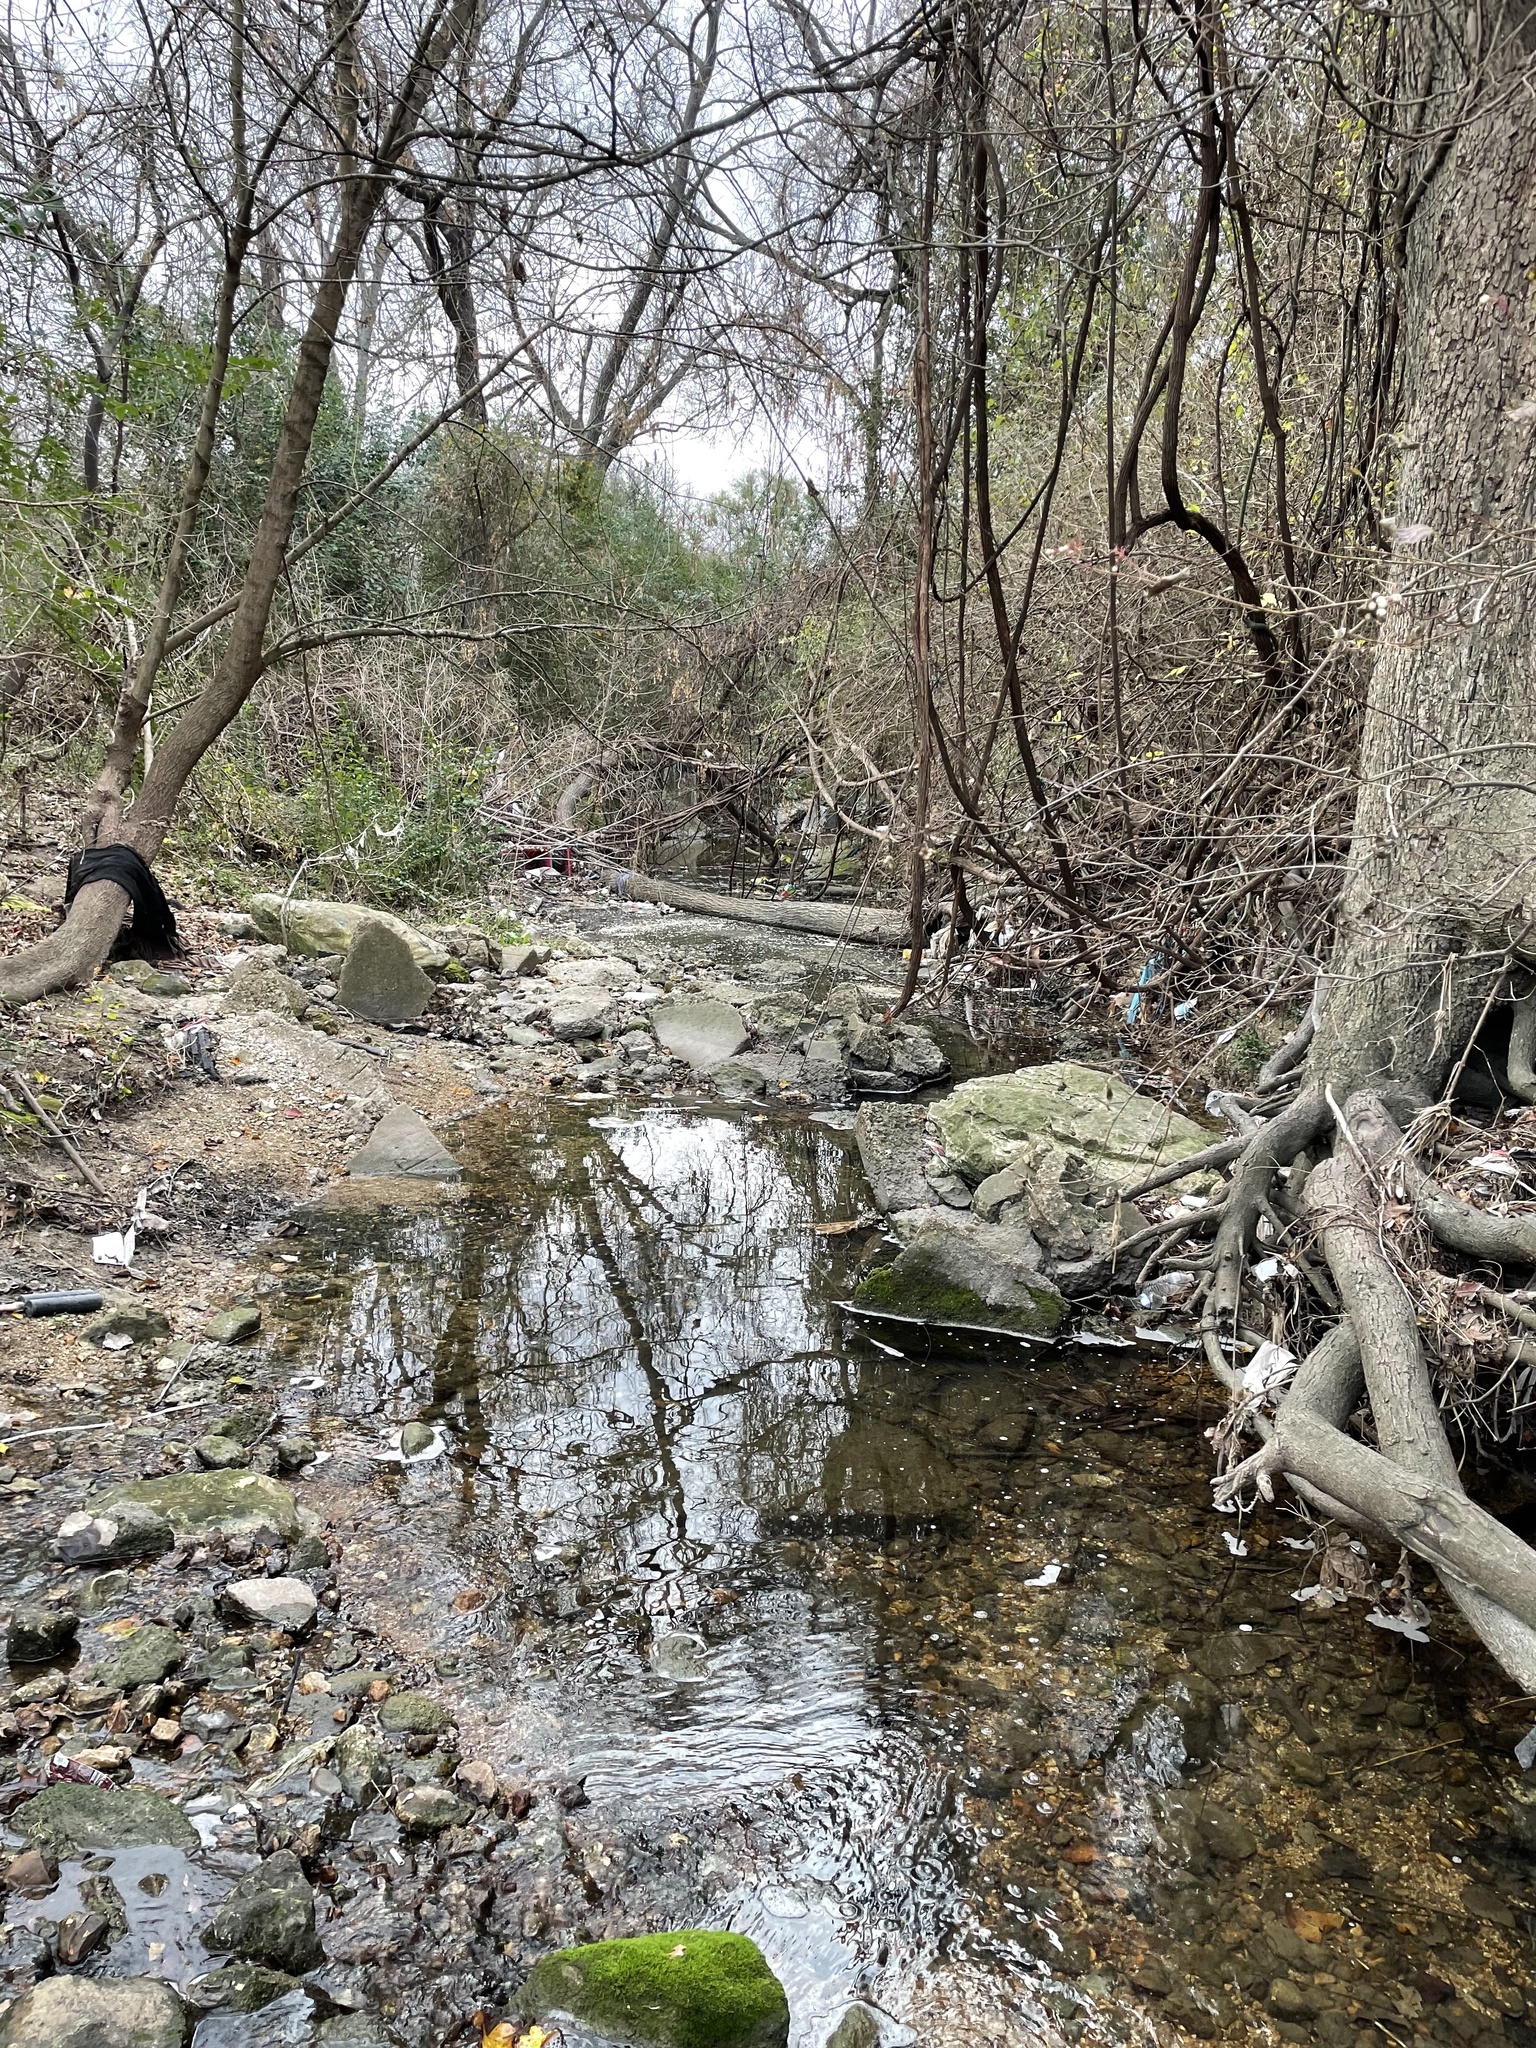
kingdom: Plantae
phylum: Tracheophyta
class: Liliopsida
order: Commelinales
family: Commelinaceae
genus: Commelina
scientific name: Commelina diffusa
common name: Climbing dayflower
